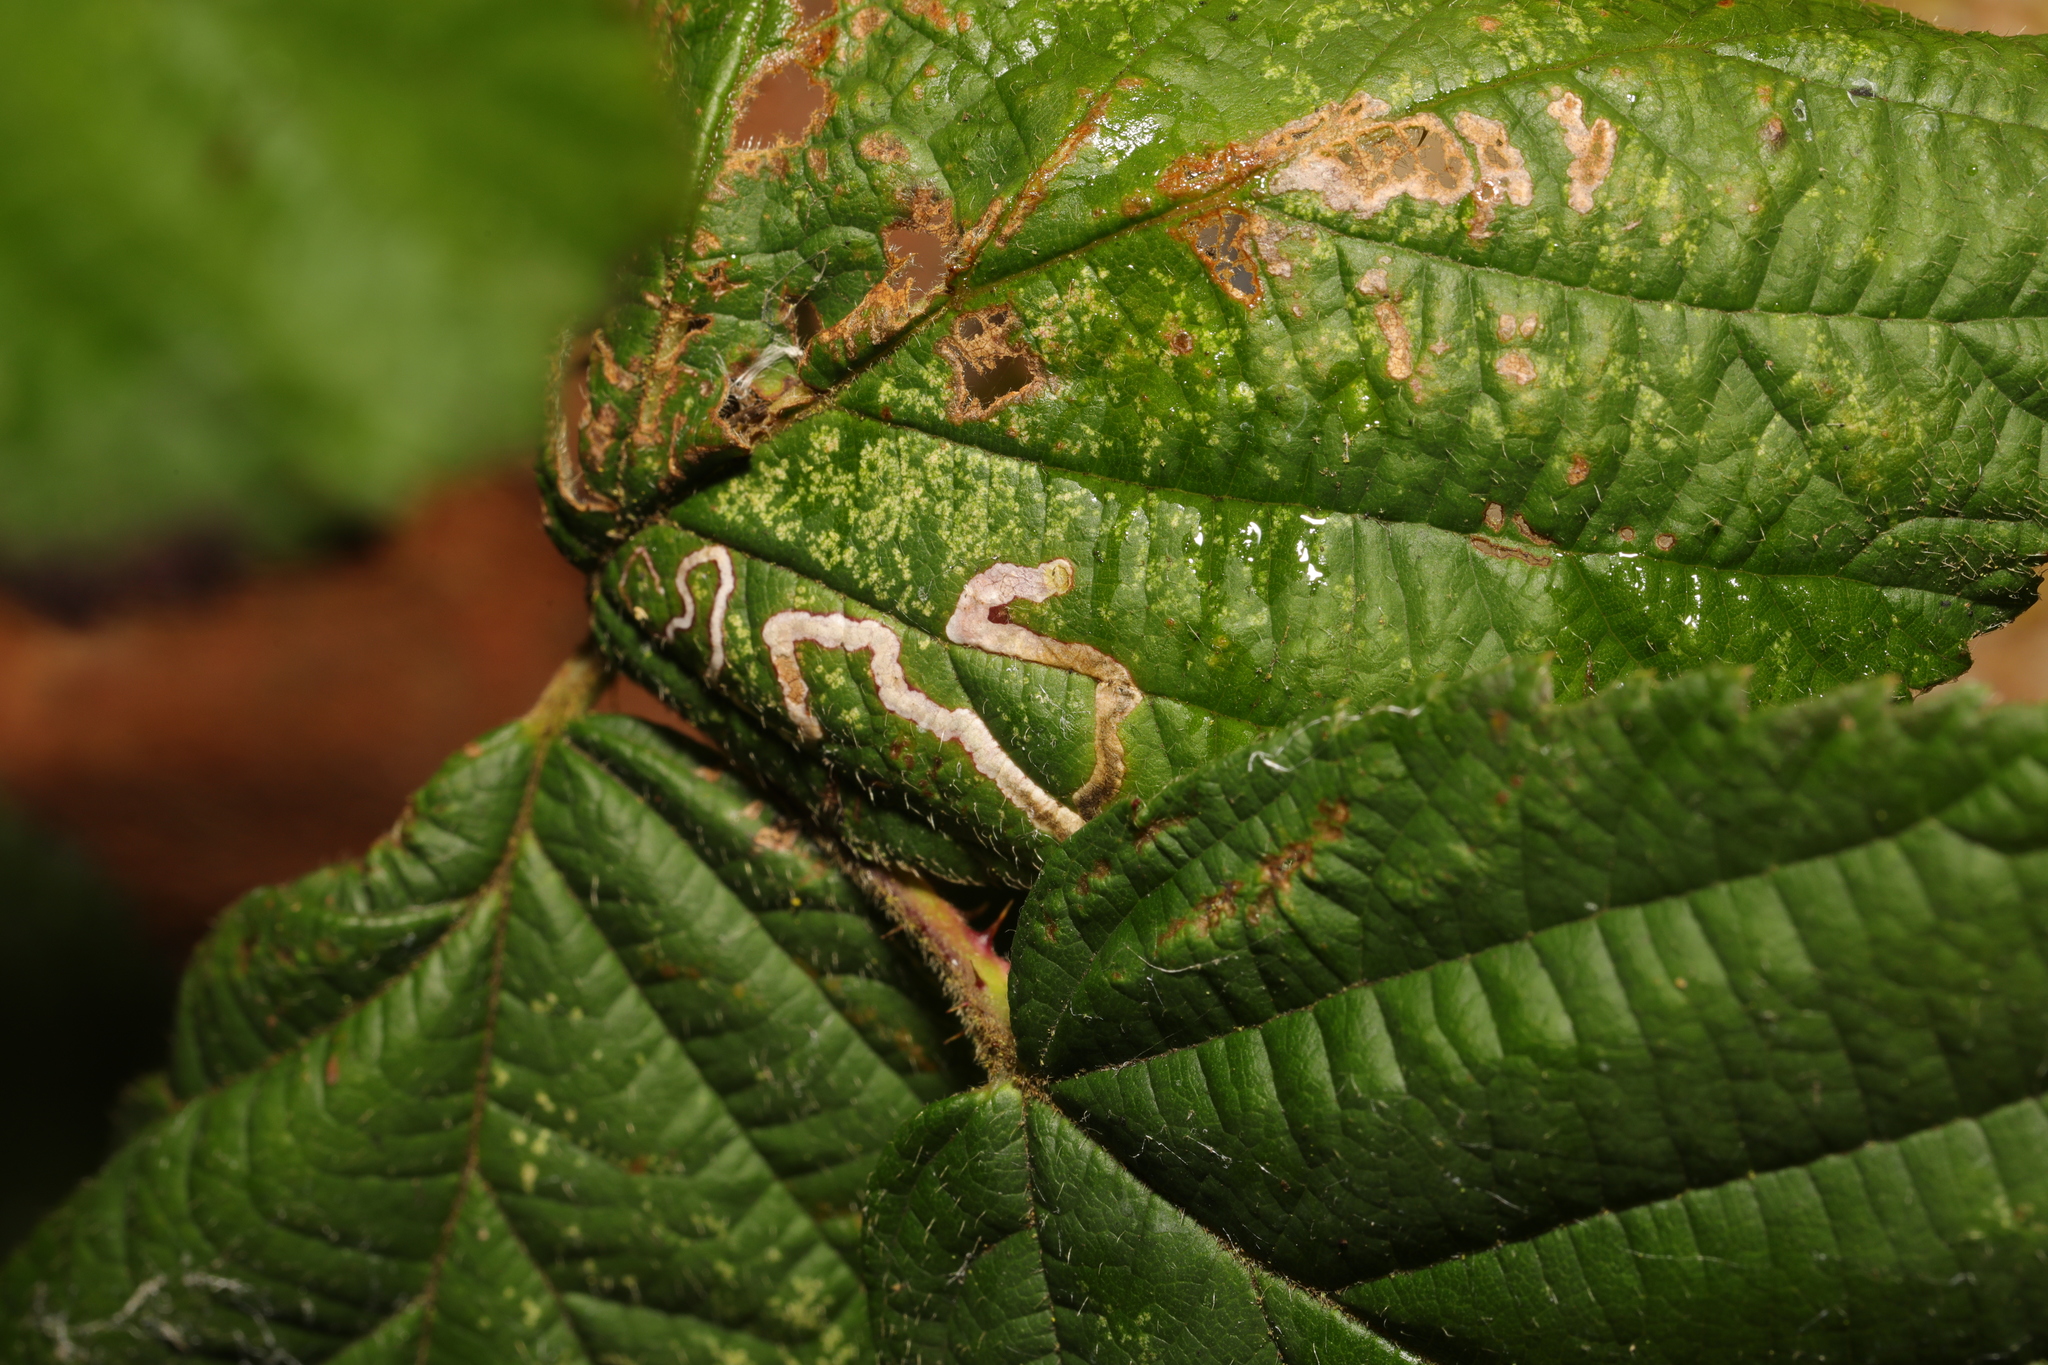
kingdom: Animalia
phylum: Arthropoda
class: Insecta
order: Lepidoptera
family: Nepticulidae
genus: Stigmella
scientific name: Stigmella aurella
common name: Golden pigmy
